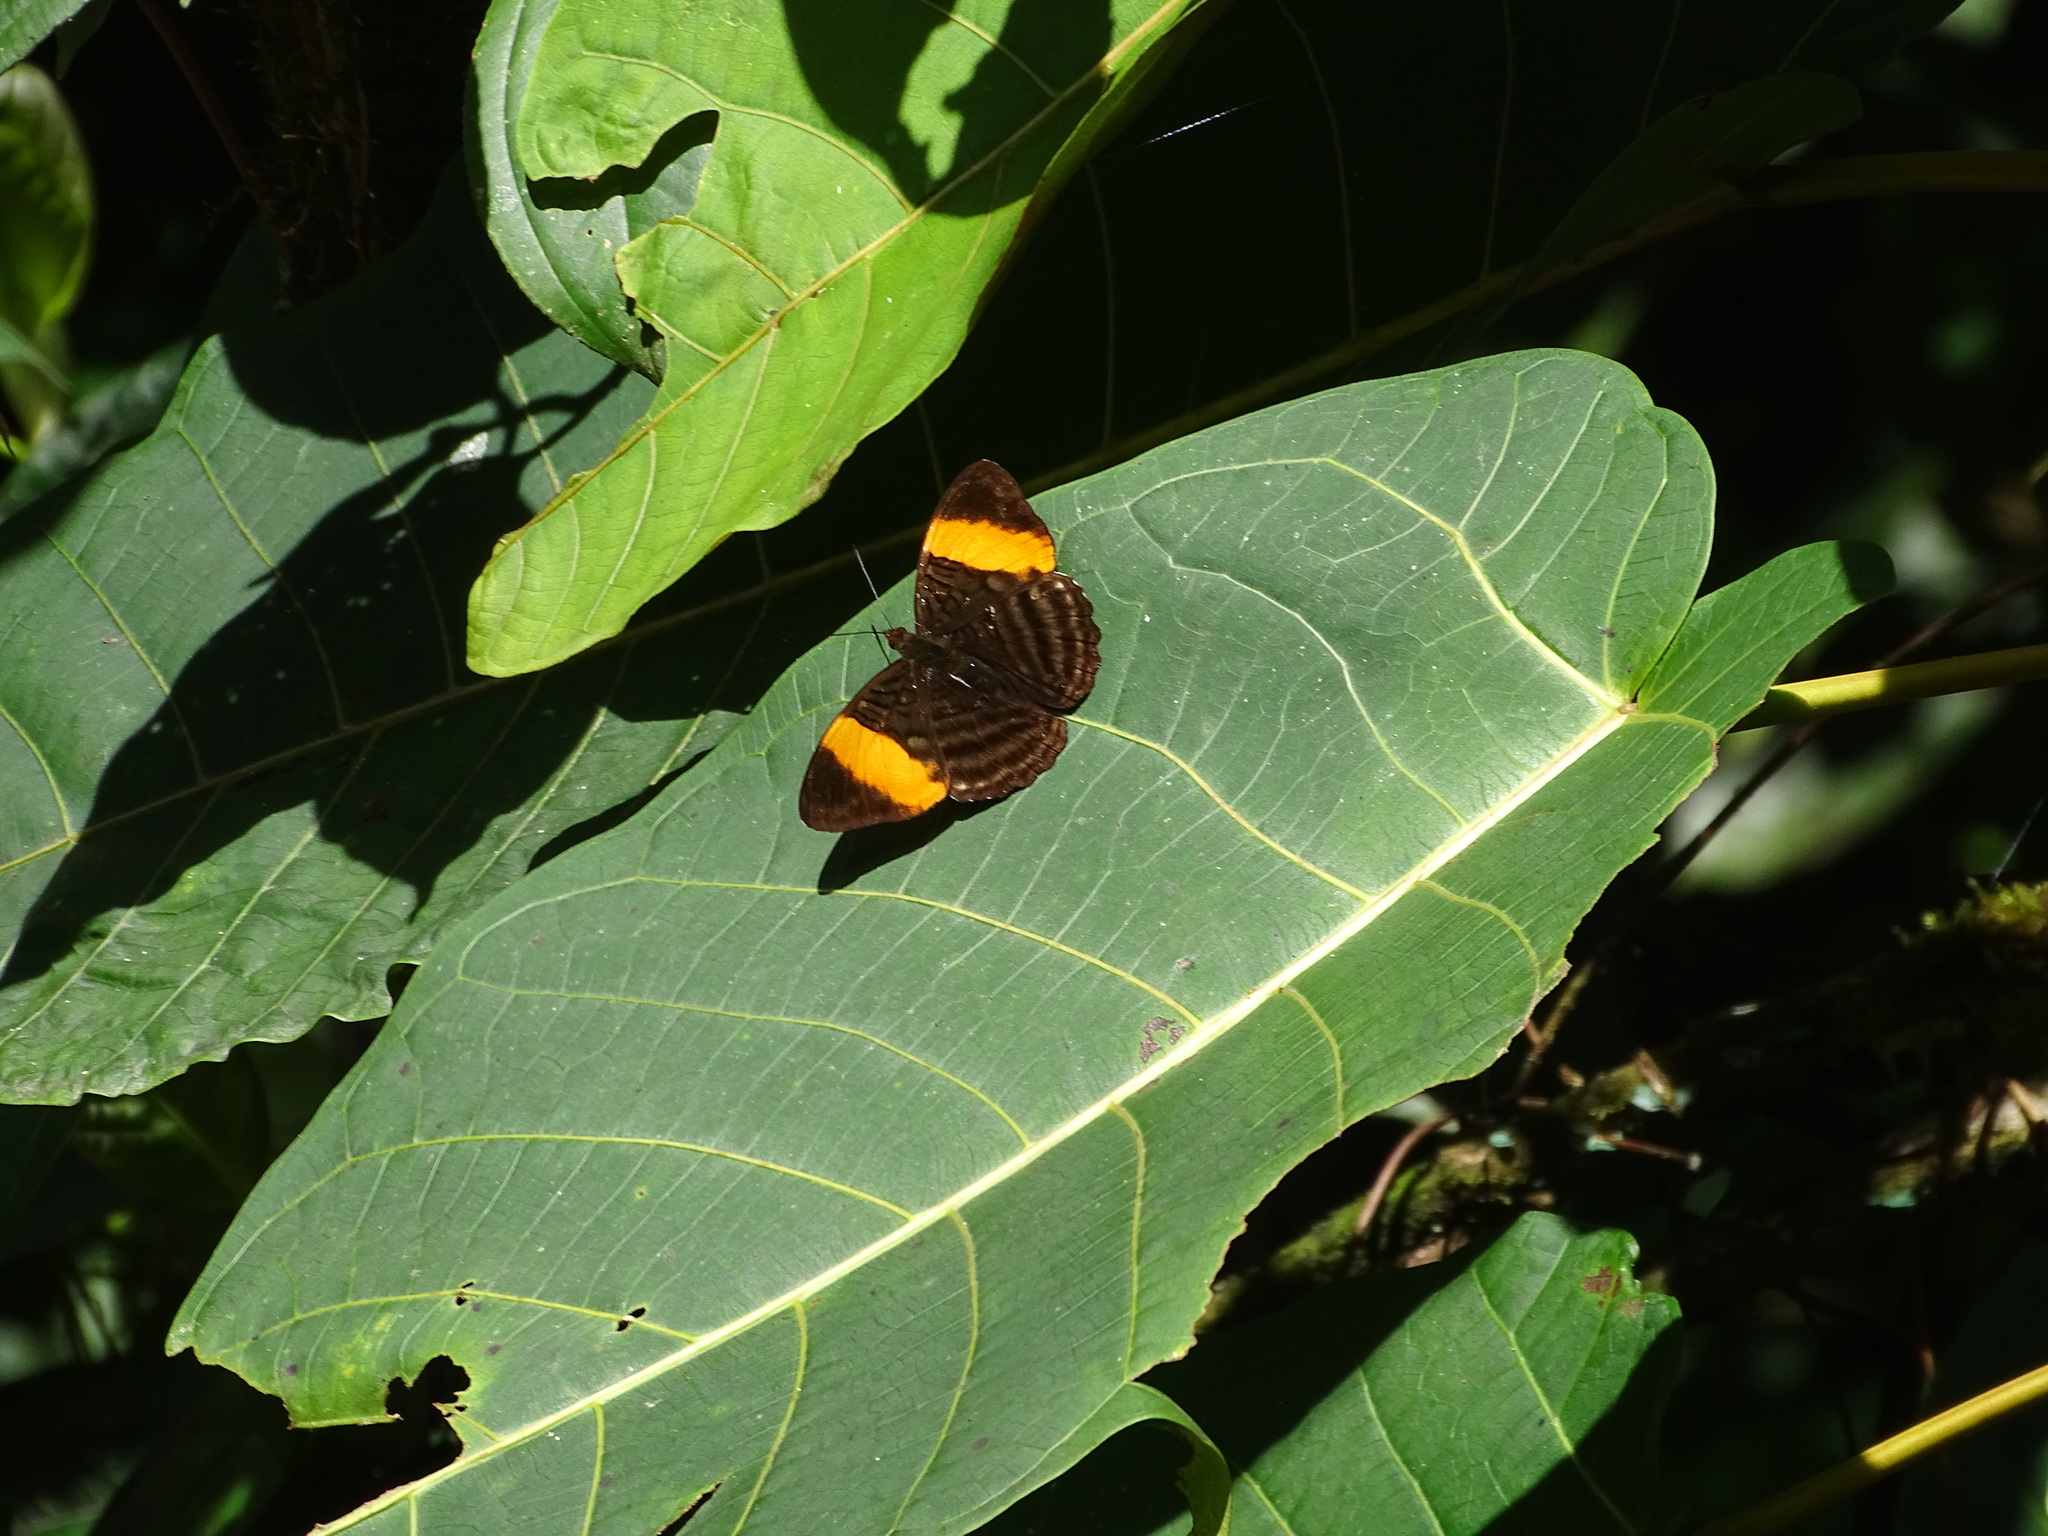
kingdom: Animalia
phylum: Arthropoda
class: Insecta
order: Lepidoptera
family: Nymphalidae
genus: Limenitis
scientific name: Limenitis salmoneus
